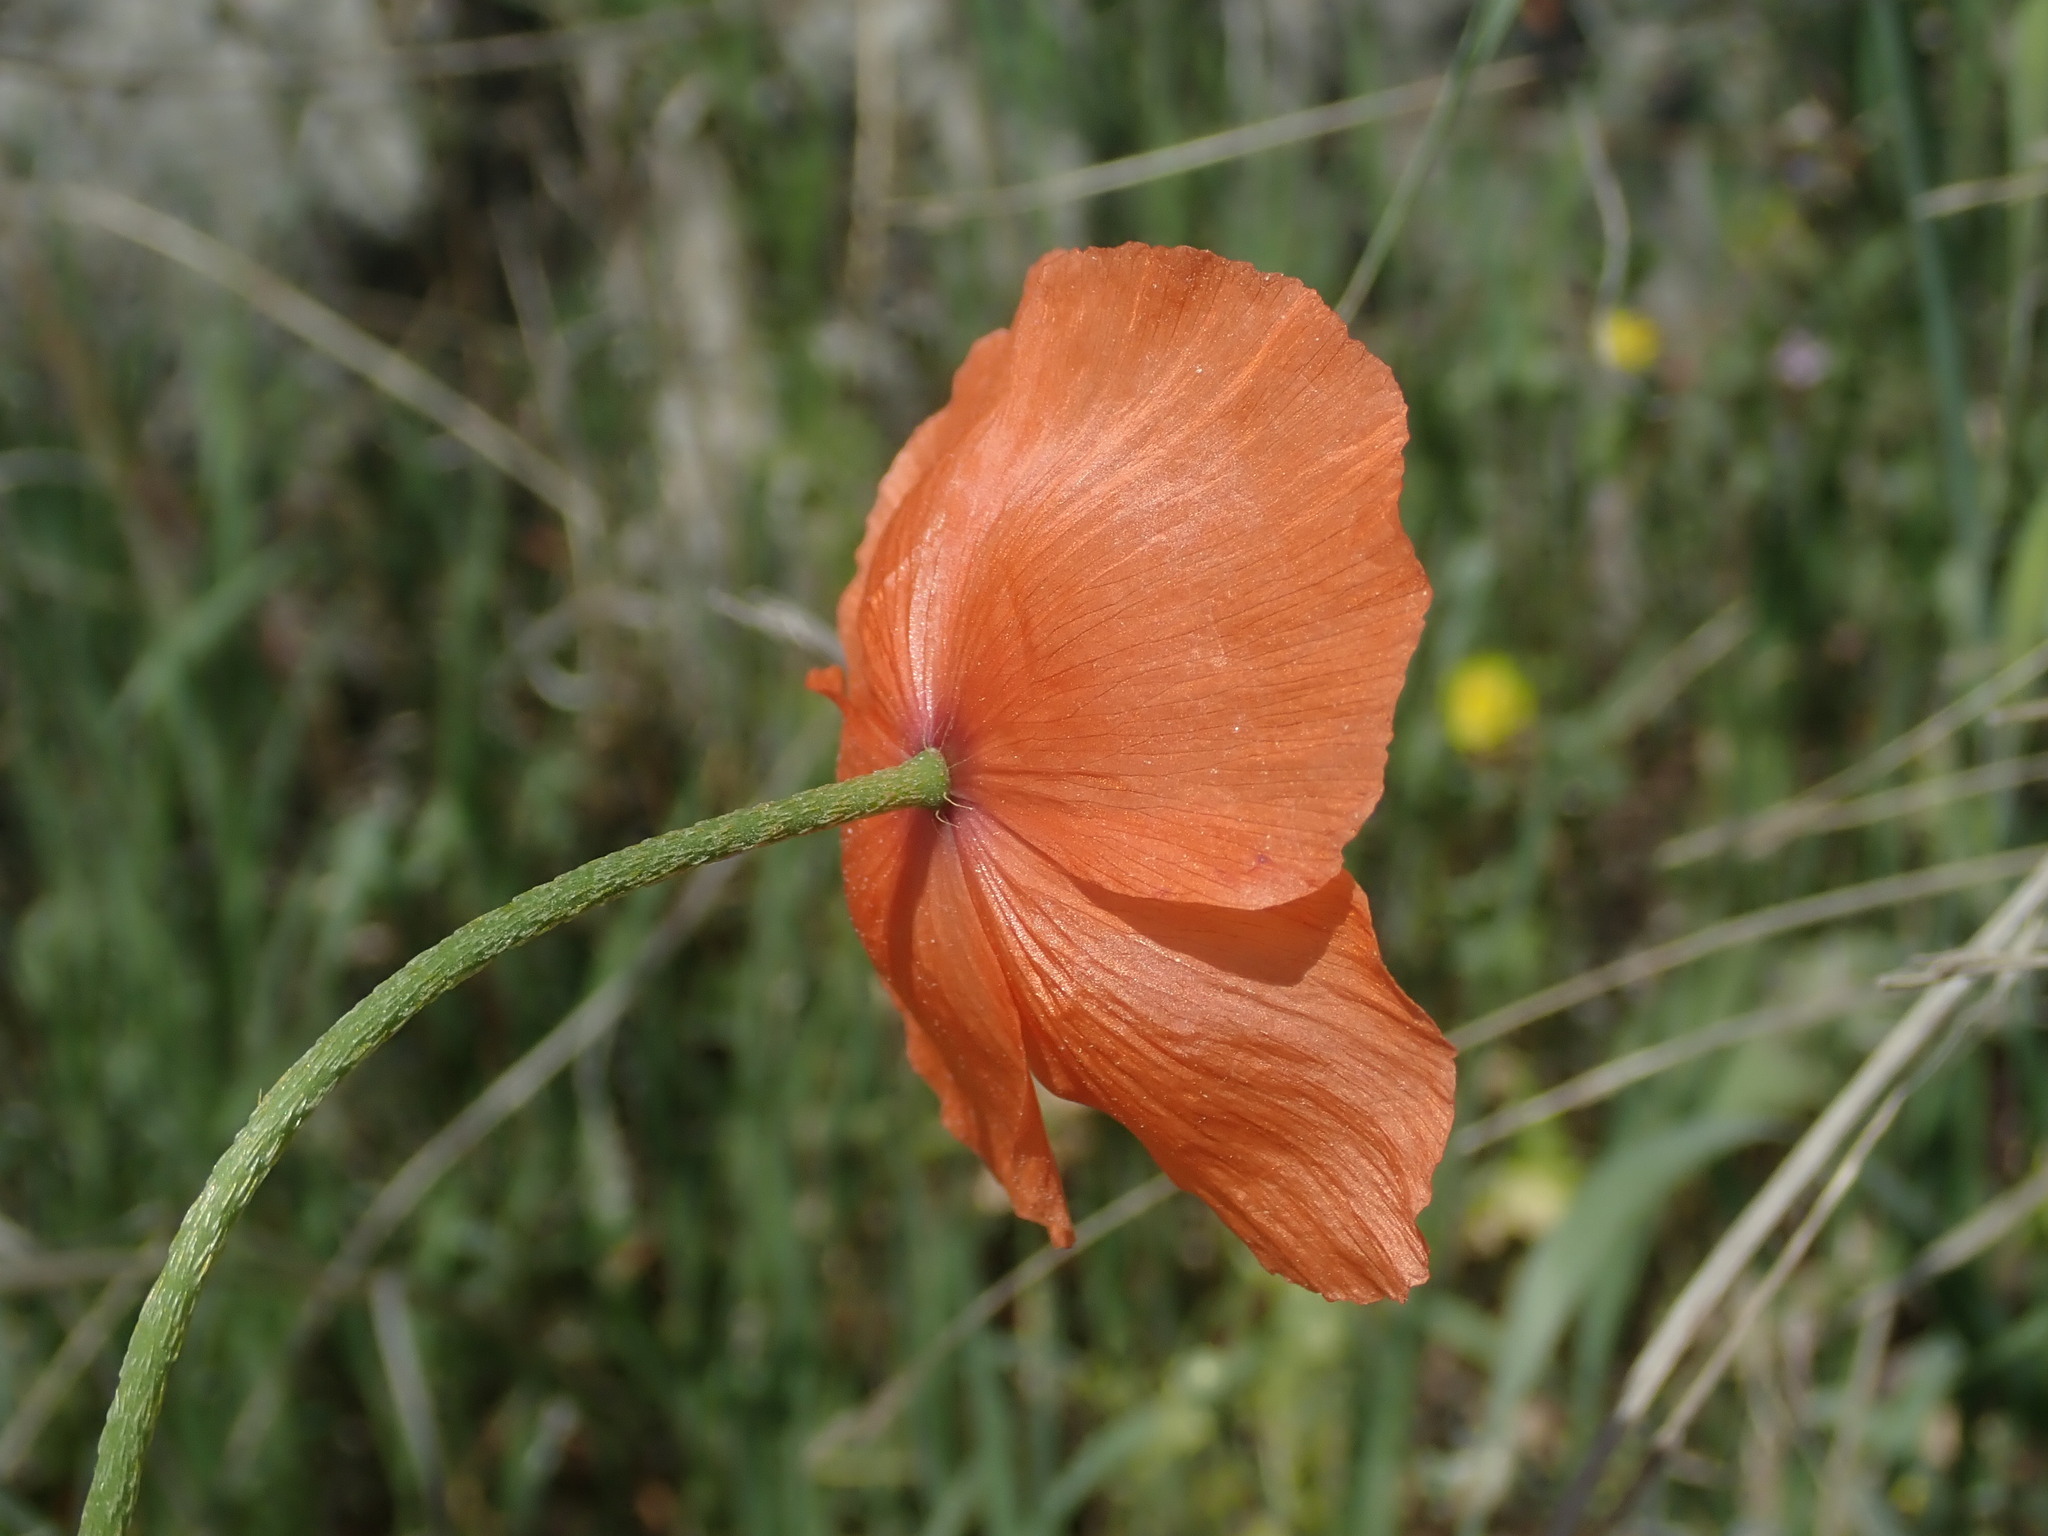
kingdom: Plantae
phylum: Tracheophyta
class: Magnoliopsida
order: Ranunculales
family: Papaveraceae
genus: Papaver
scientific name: Papaver dubium
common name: Long-headed poppy
